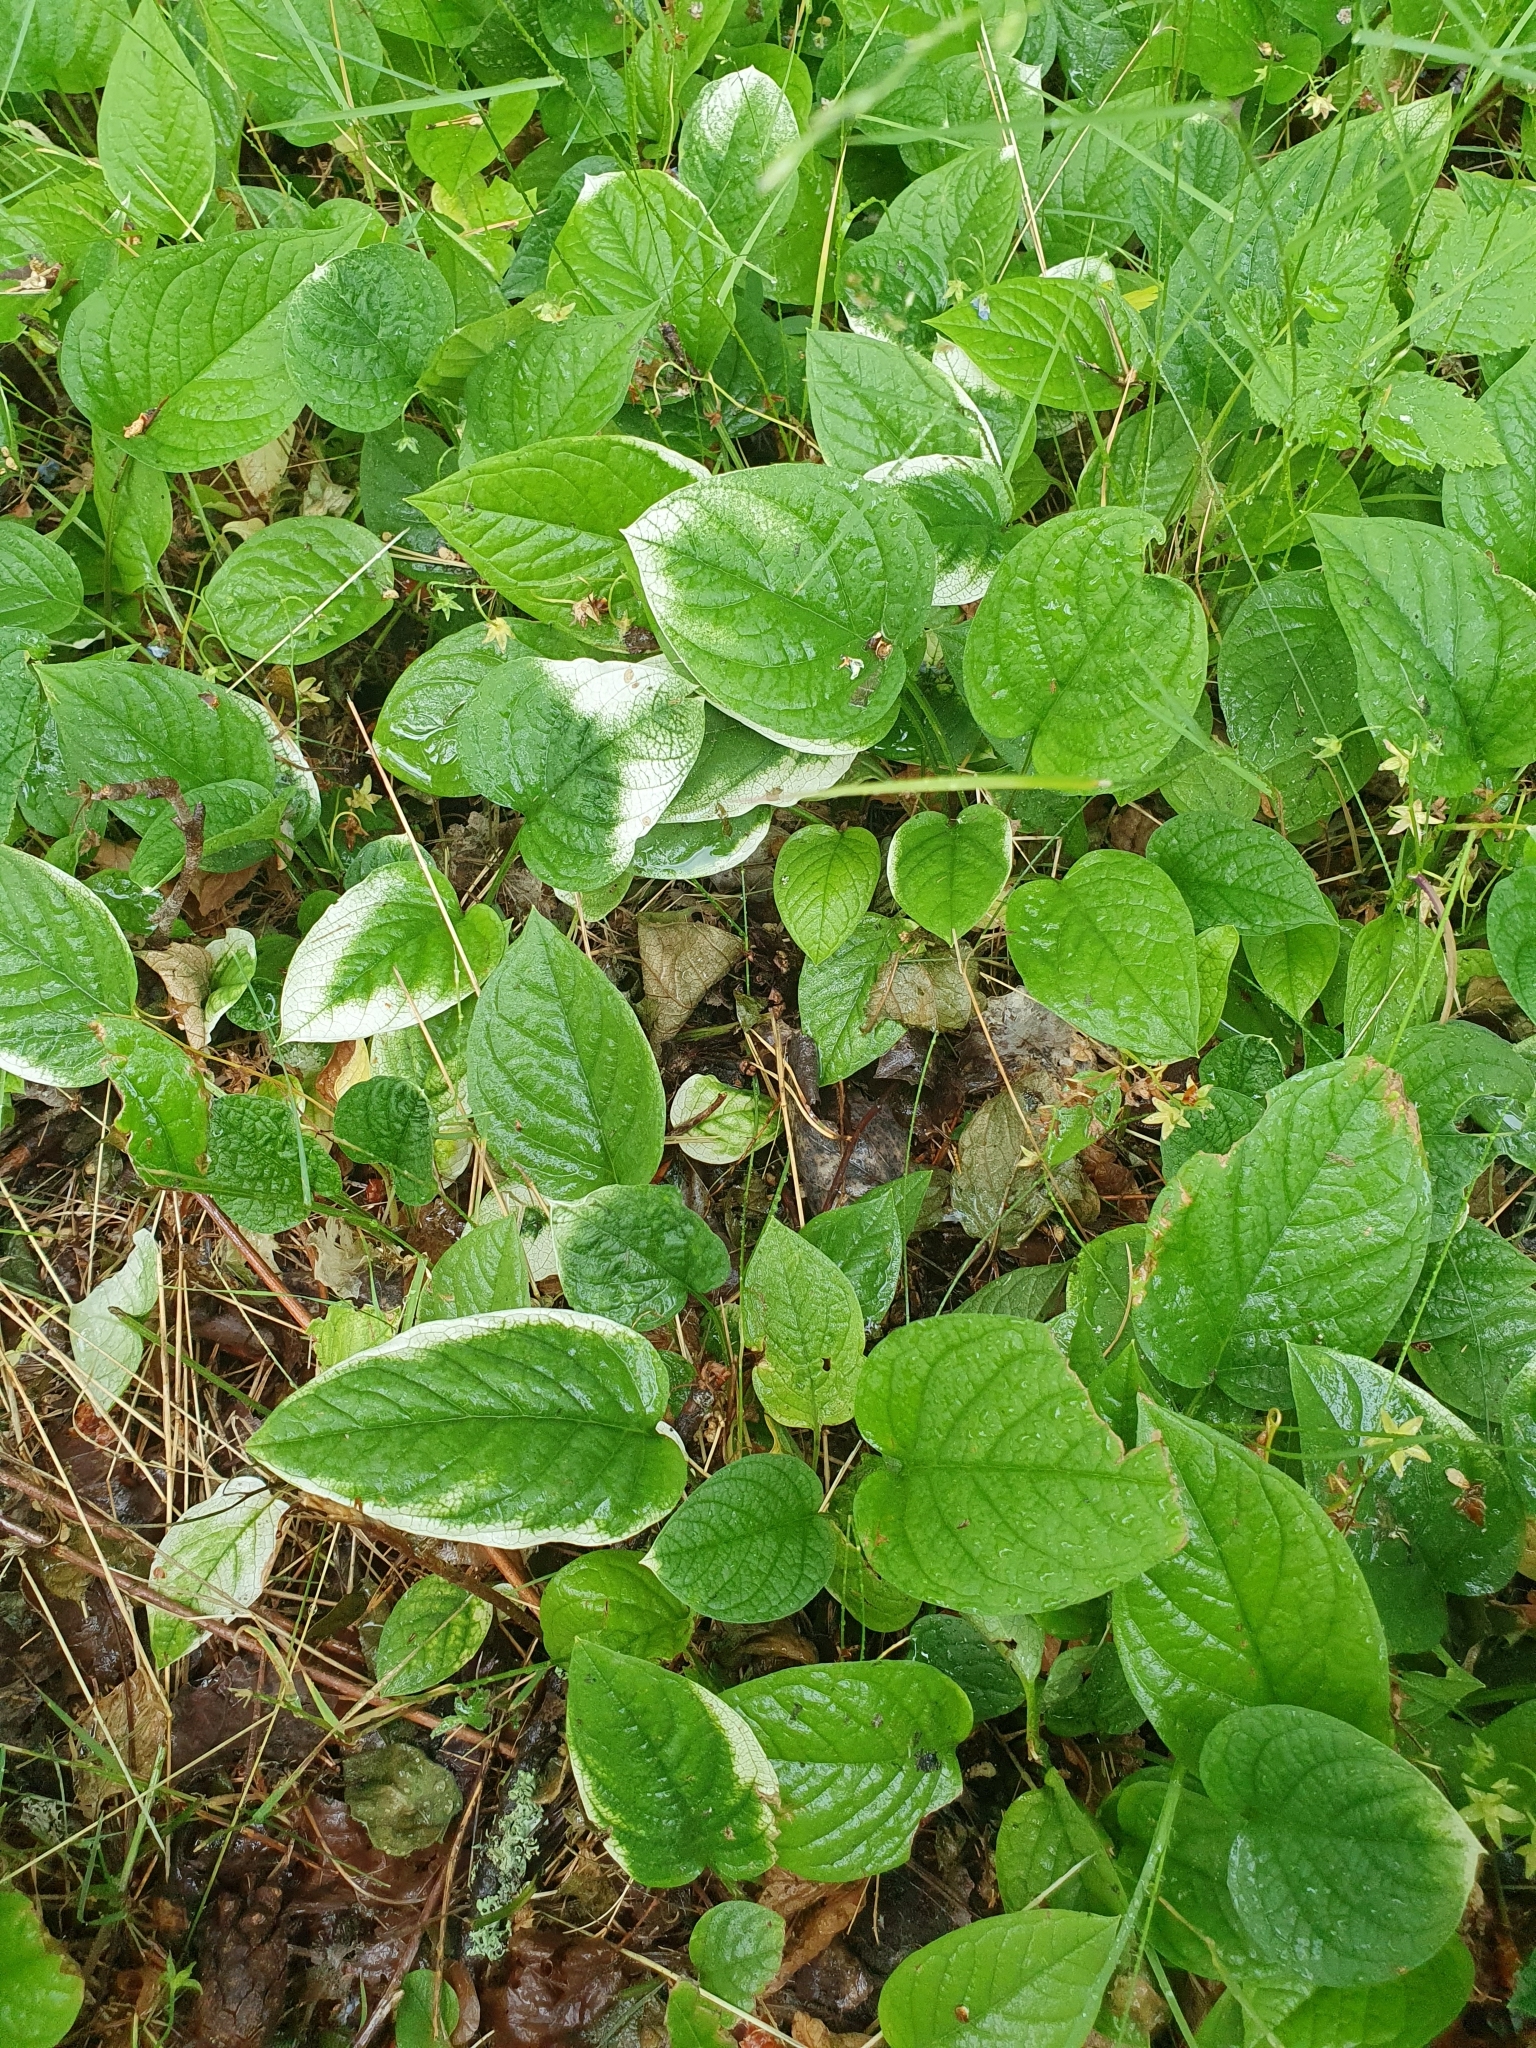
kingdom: Plantae
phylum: Tracheophyta
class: Magnoliopsida
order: Boraginales
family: Boraginaceae
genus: Omphalodes
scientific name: Omphalodes verna
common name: Blue-eyed-mary
